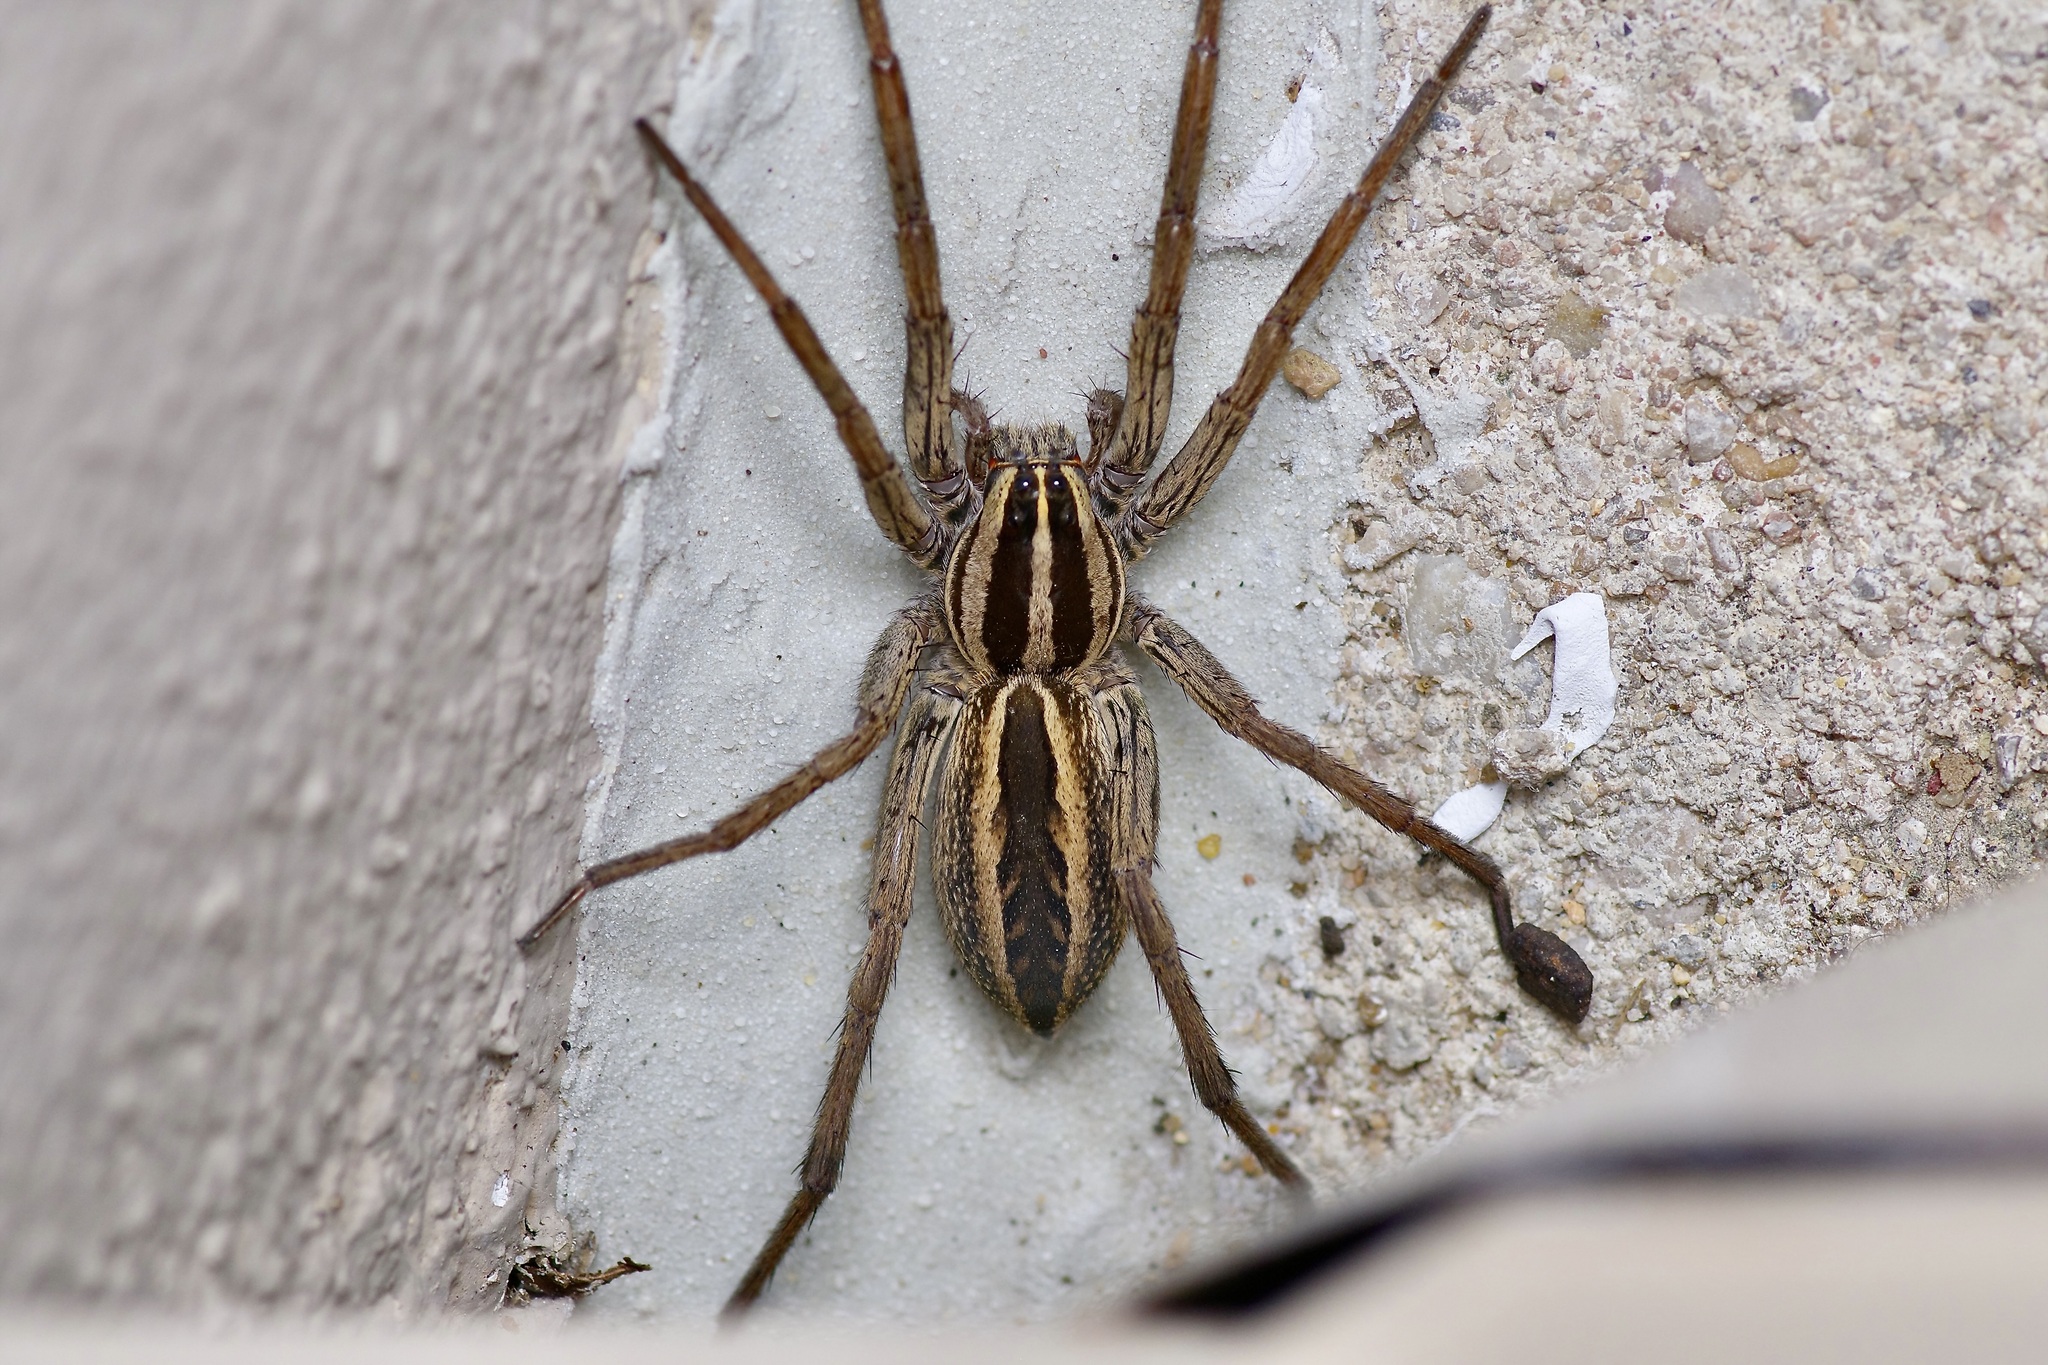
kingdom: Animalia
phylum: Arthropoda
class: Arachnida
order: Araneae
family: Lycosidae
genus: Rabidosa
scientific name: Rabidosa rabida
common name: Rabid wolf spider
